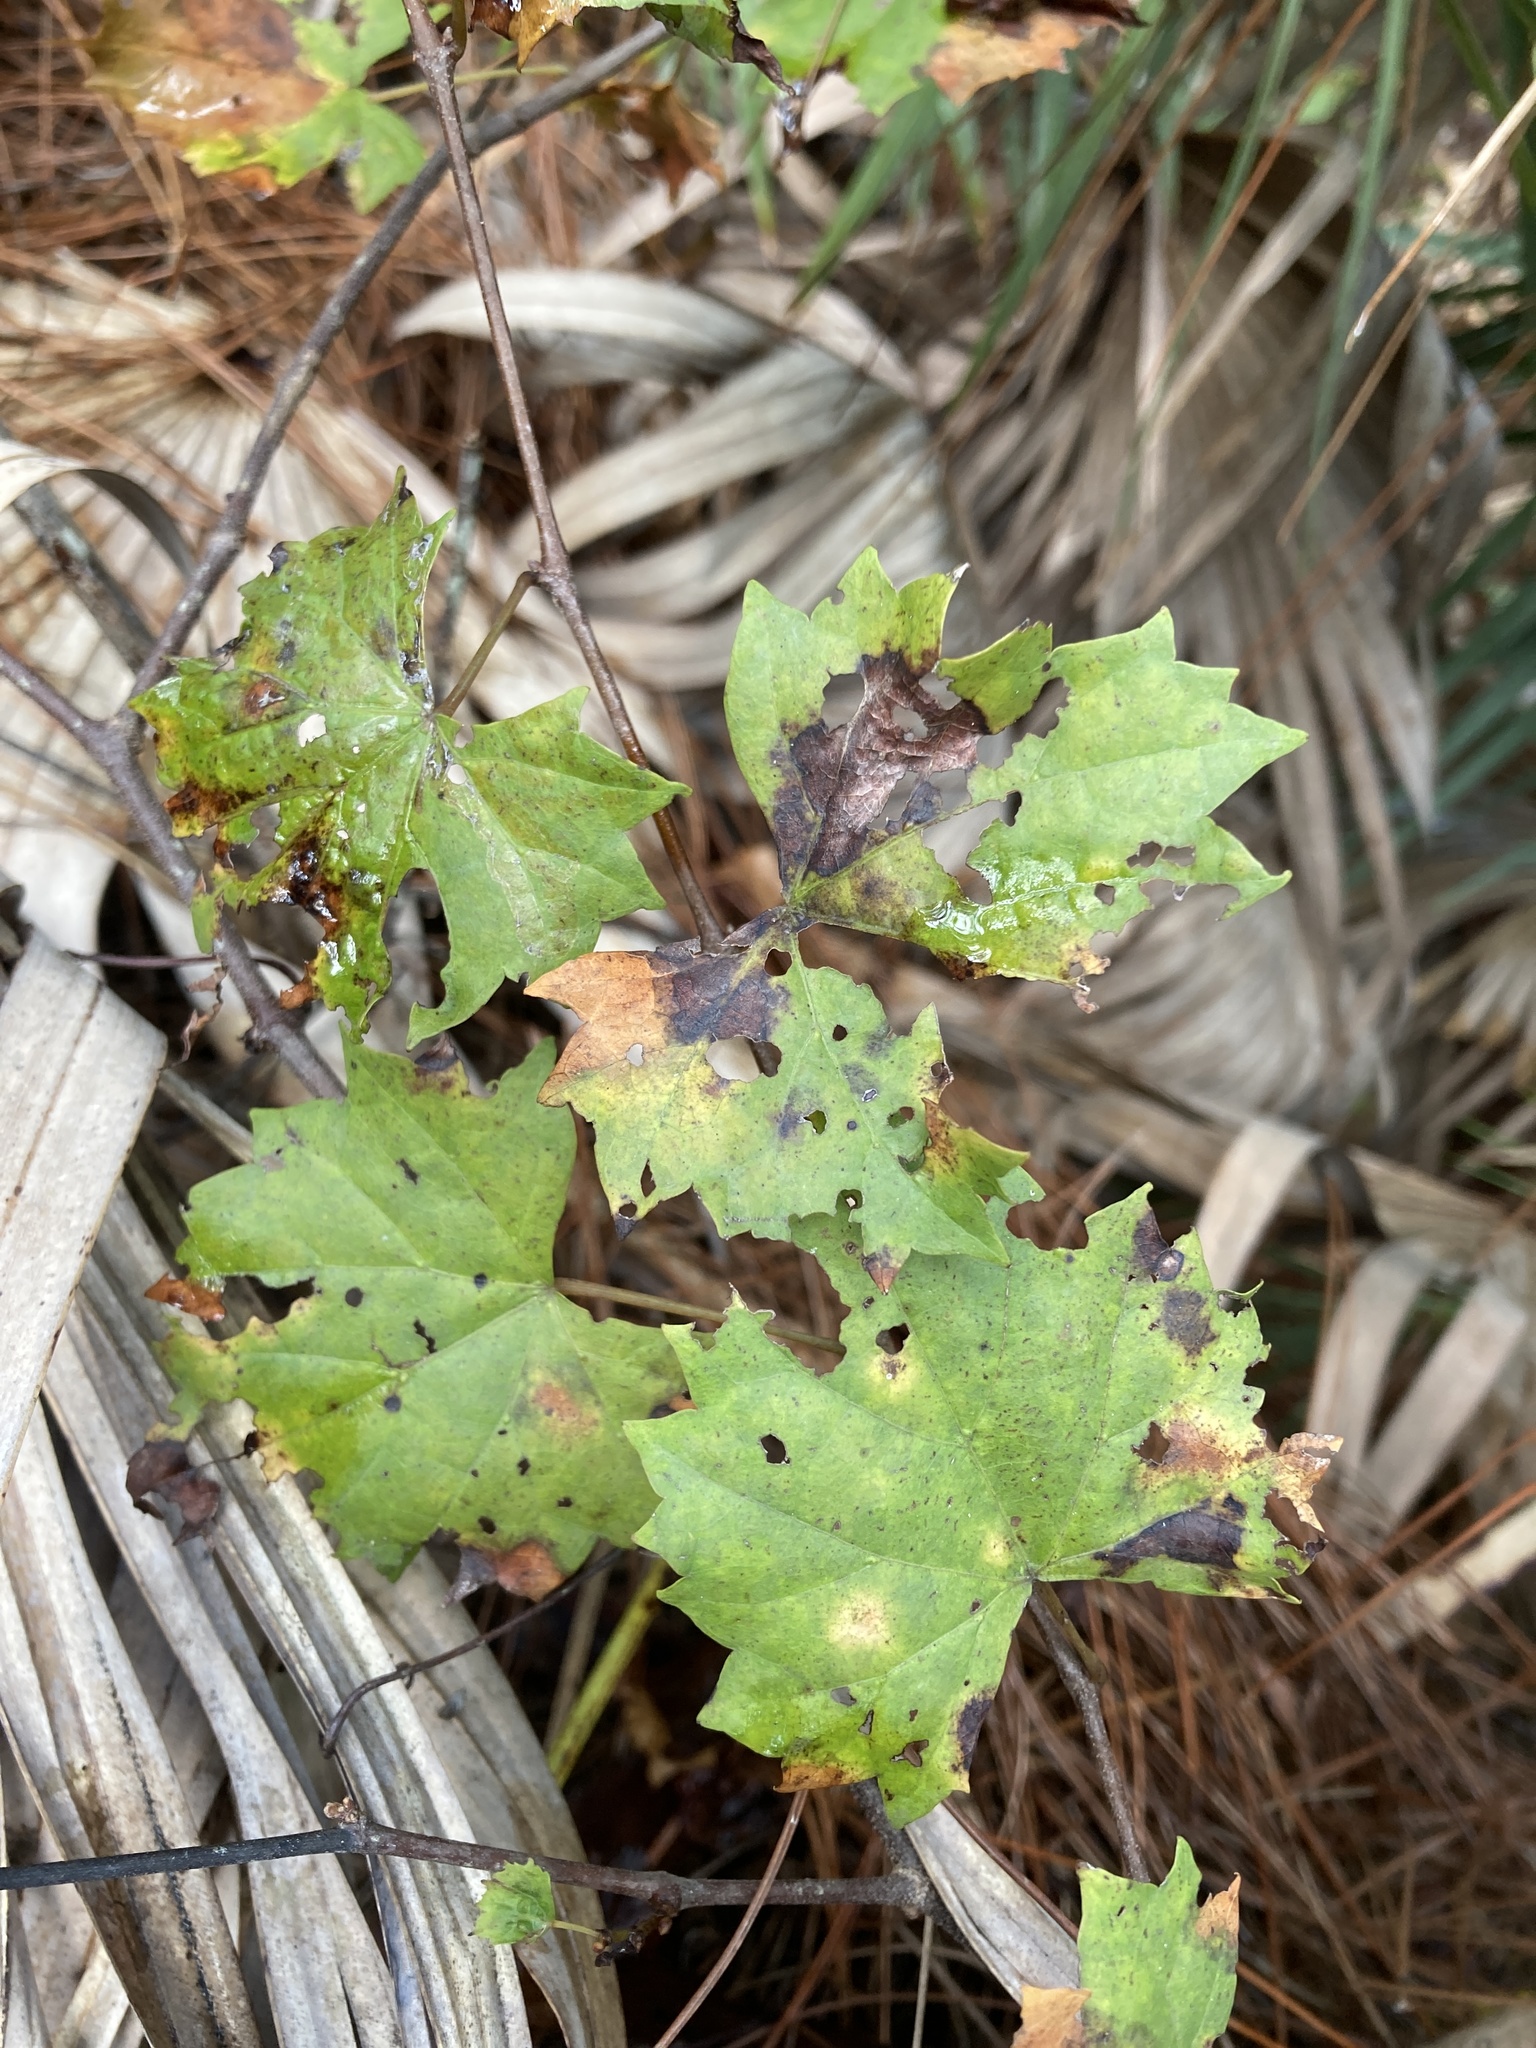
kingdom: Plantae
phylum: Tracheophyta
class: Magnoliopsida
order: Vitales
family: Vitaceae
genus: Vitis
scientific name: Vitis rotundifolia
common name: Muscadine grape
